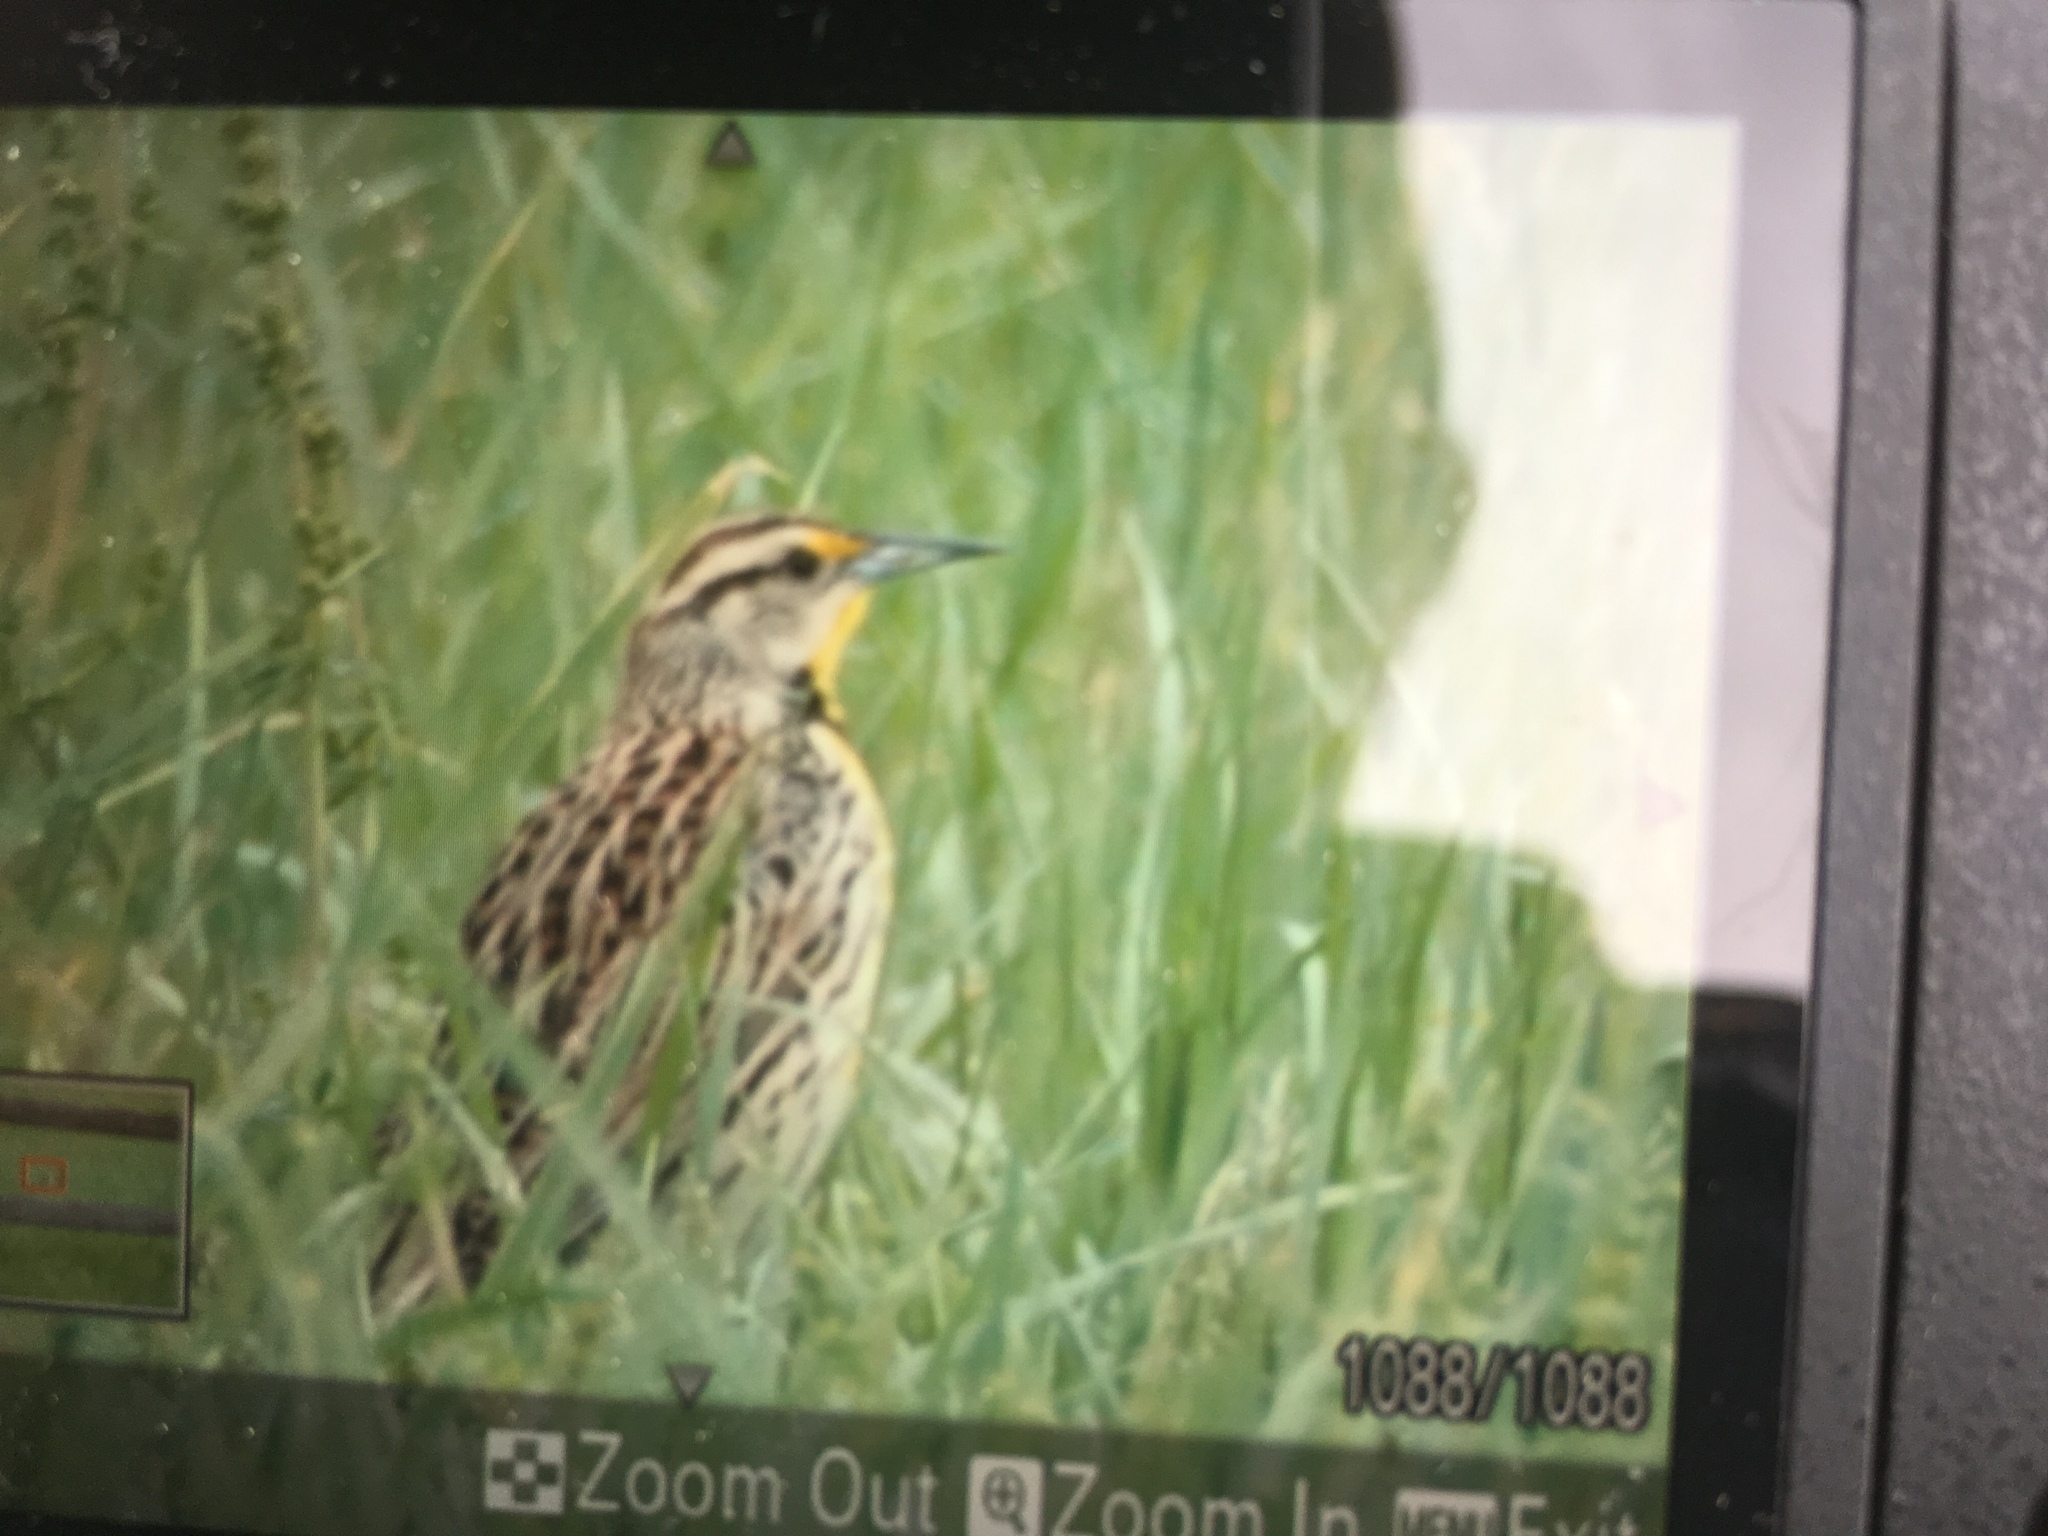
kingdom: Animalia
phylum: Chordata
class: Aves
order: Passeriformes
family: Icteridae
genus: Sturnella
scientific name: Sturnella magna
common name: Eastern meadowlark
